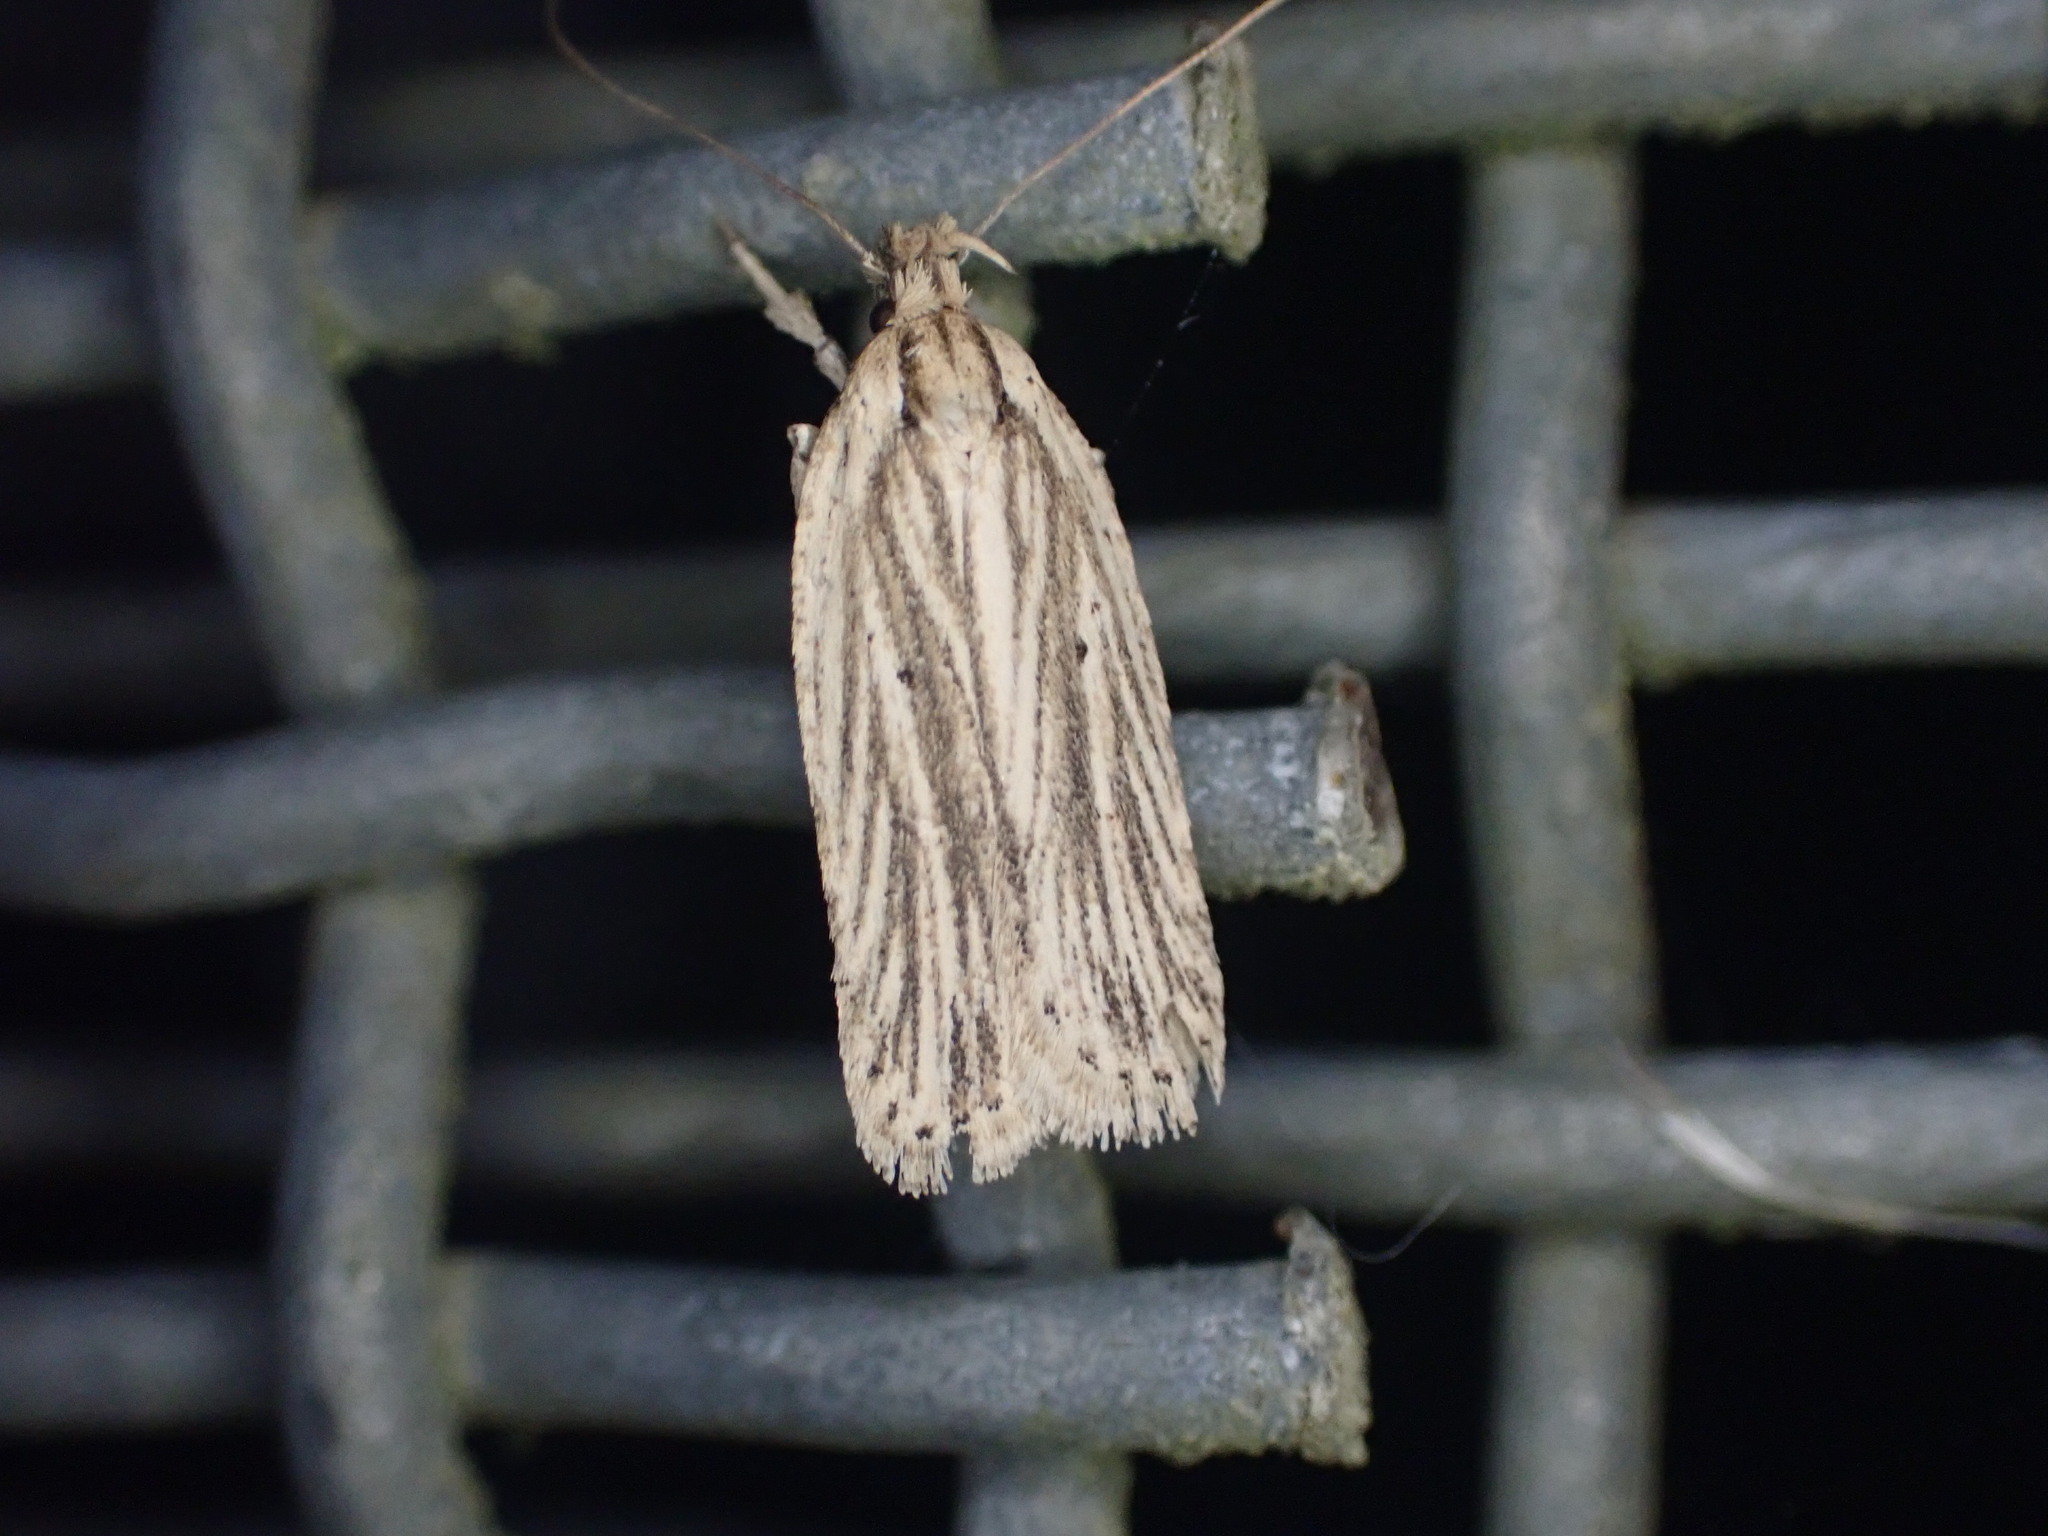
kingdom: Animalia
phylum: Arthropoda
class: Insecta
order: Lepidoptera
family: Depressariidae
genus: Agonopterix
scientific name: Agonopterix
